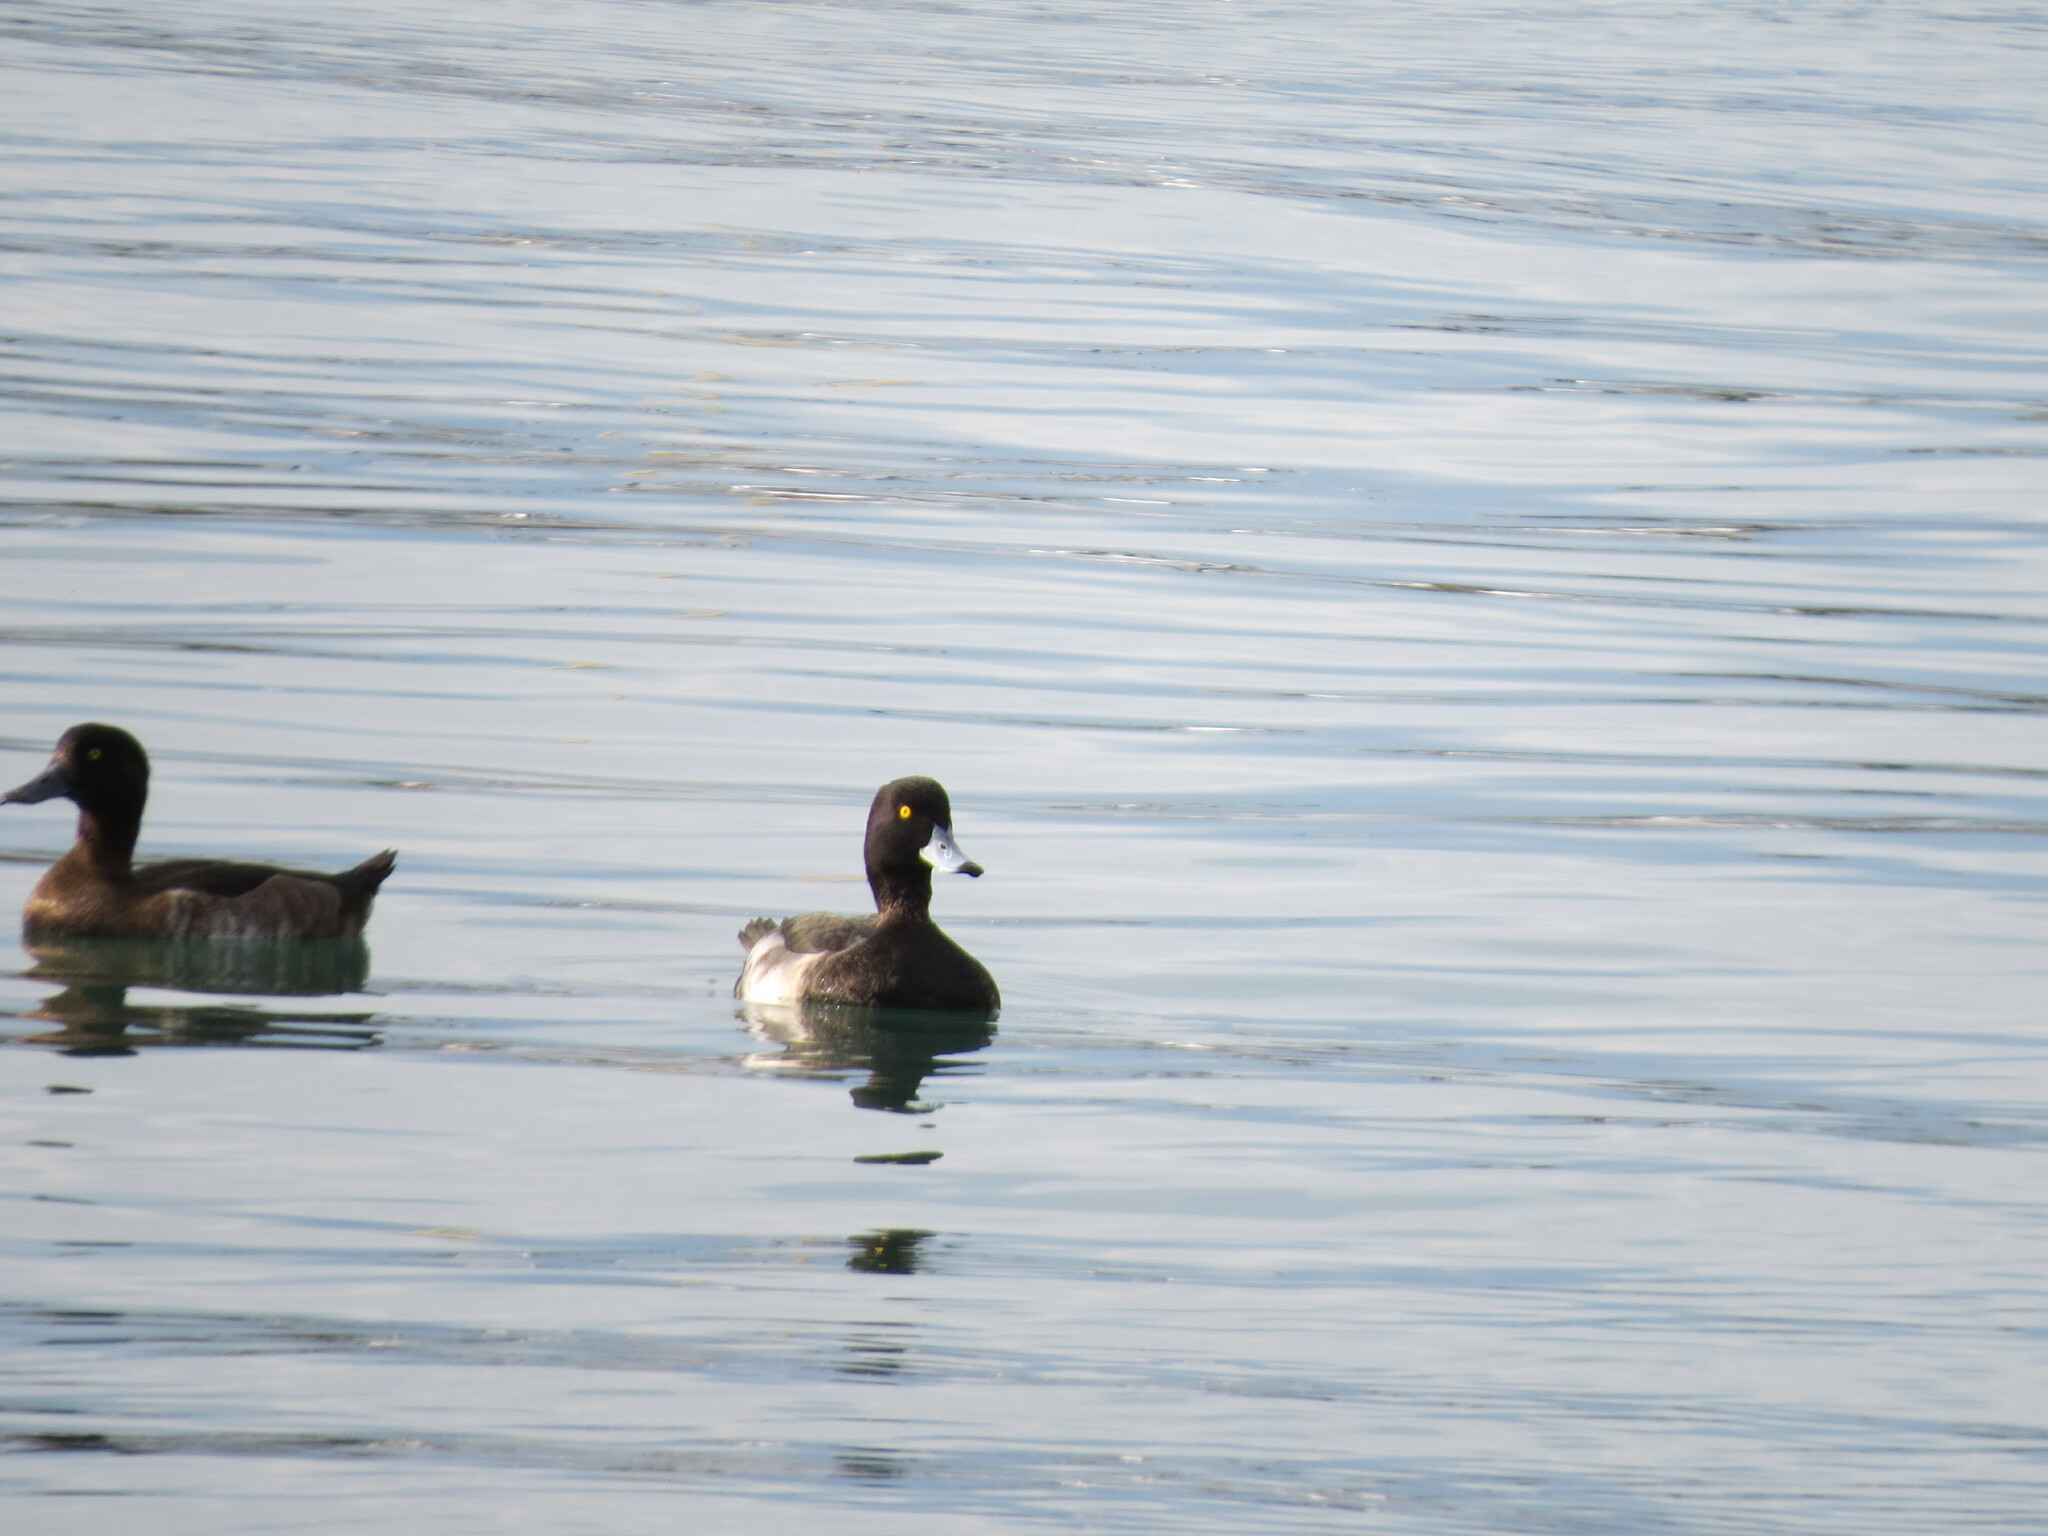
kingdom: Animalia
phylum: Chordata
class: Aves
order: Anseriformes
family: Anatidae
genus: Aythya
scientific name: Aythya fuligula
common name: Tufted duck
